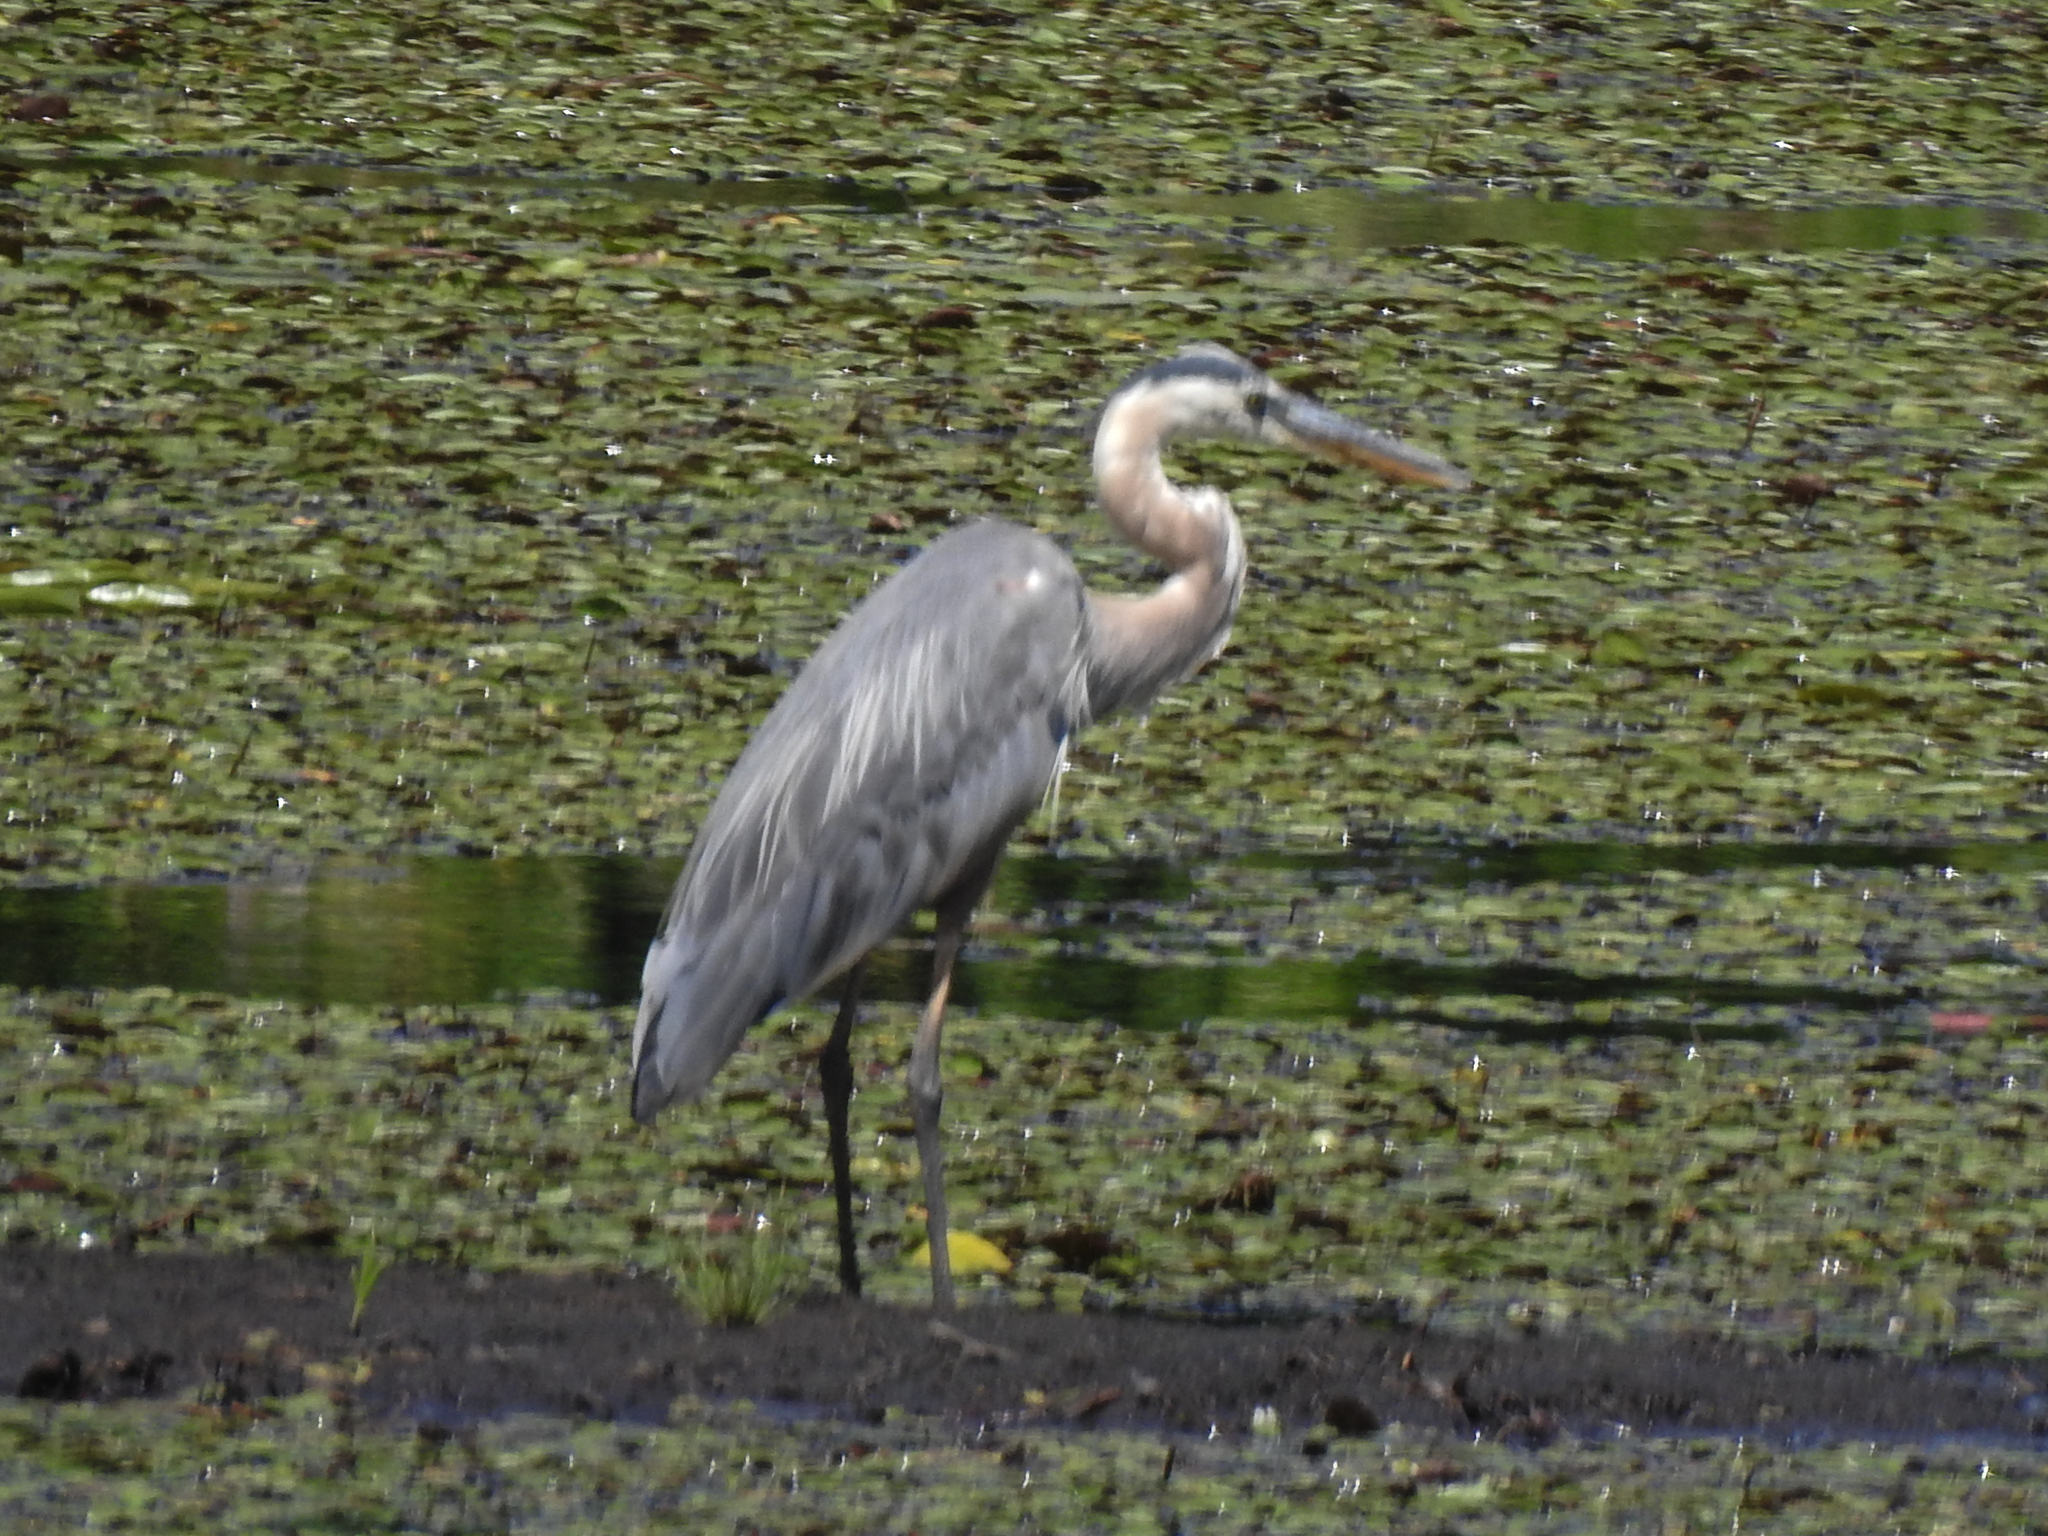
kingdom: Animalia
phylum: Chordata
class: Aves
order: Pelecaniformes
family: Ardeidae
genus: Ardea
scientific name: Ardea herodias
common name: Great blue heron
